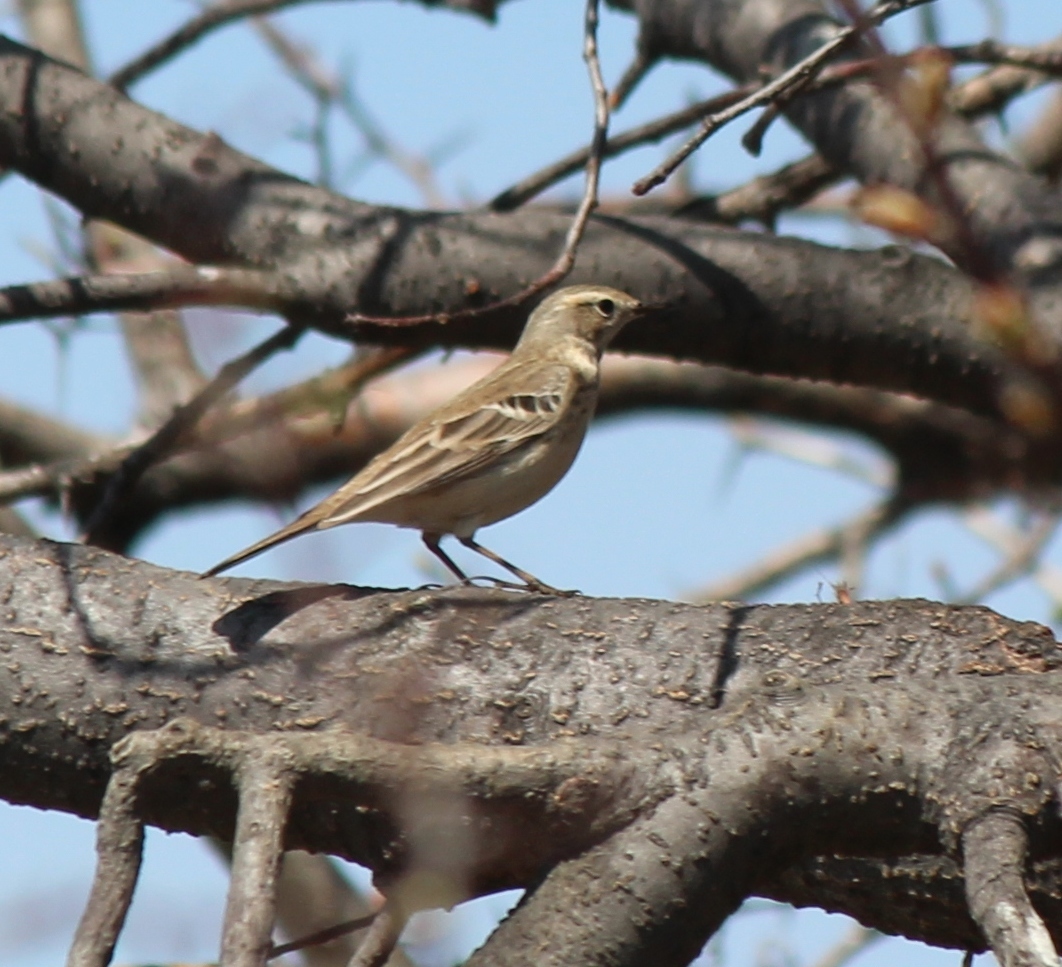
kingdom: Animalia
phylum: Chordata
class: Aves
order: Passeriformes
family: Motacillidae
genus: Anthus
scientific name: Anthus spinoletta
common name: Water pipit
